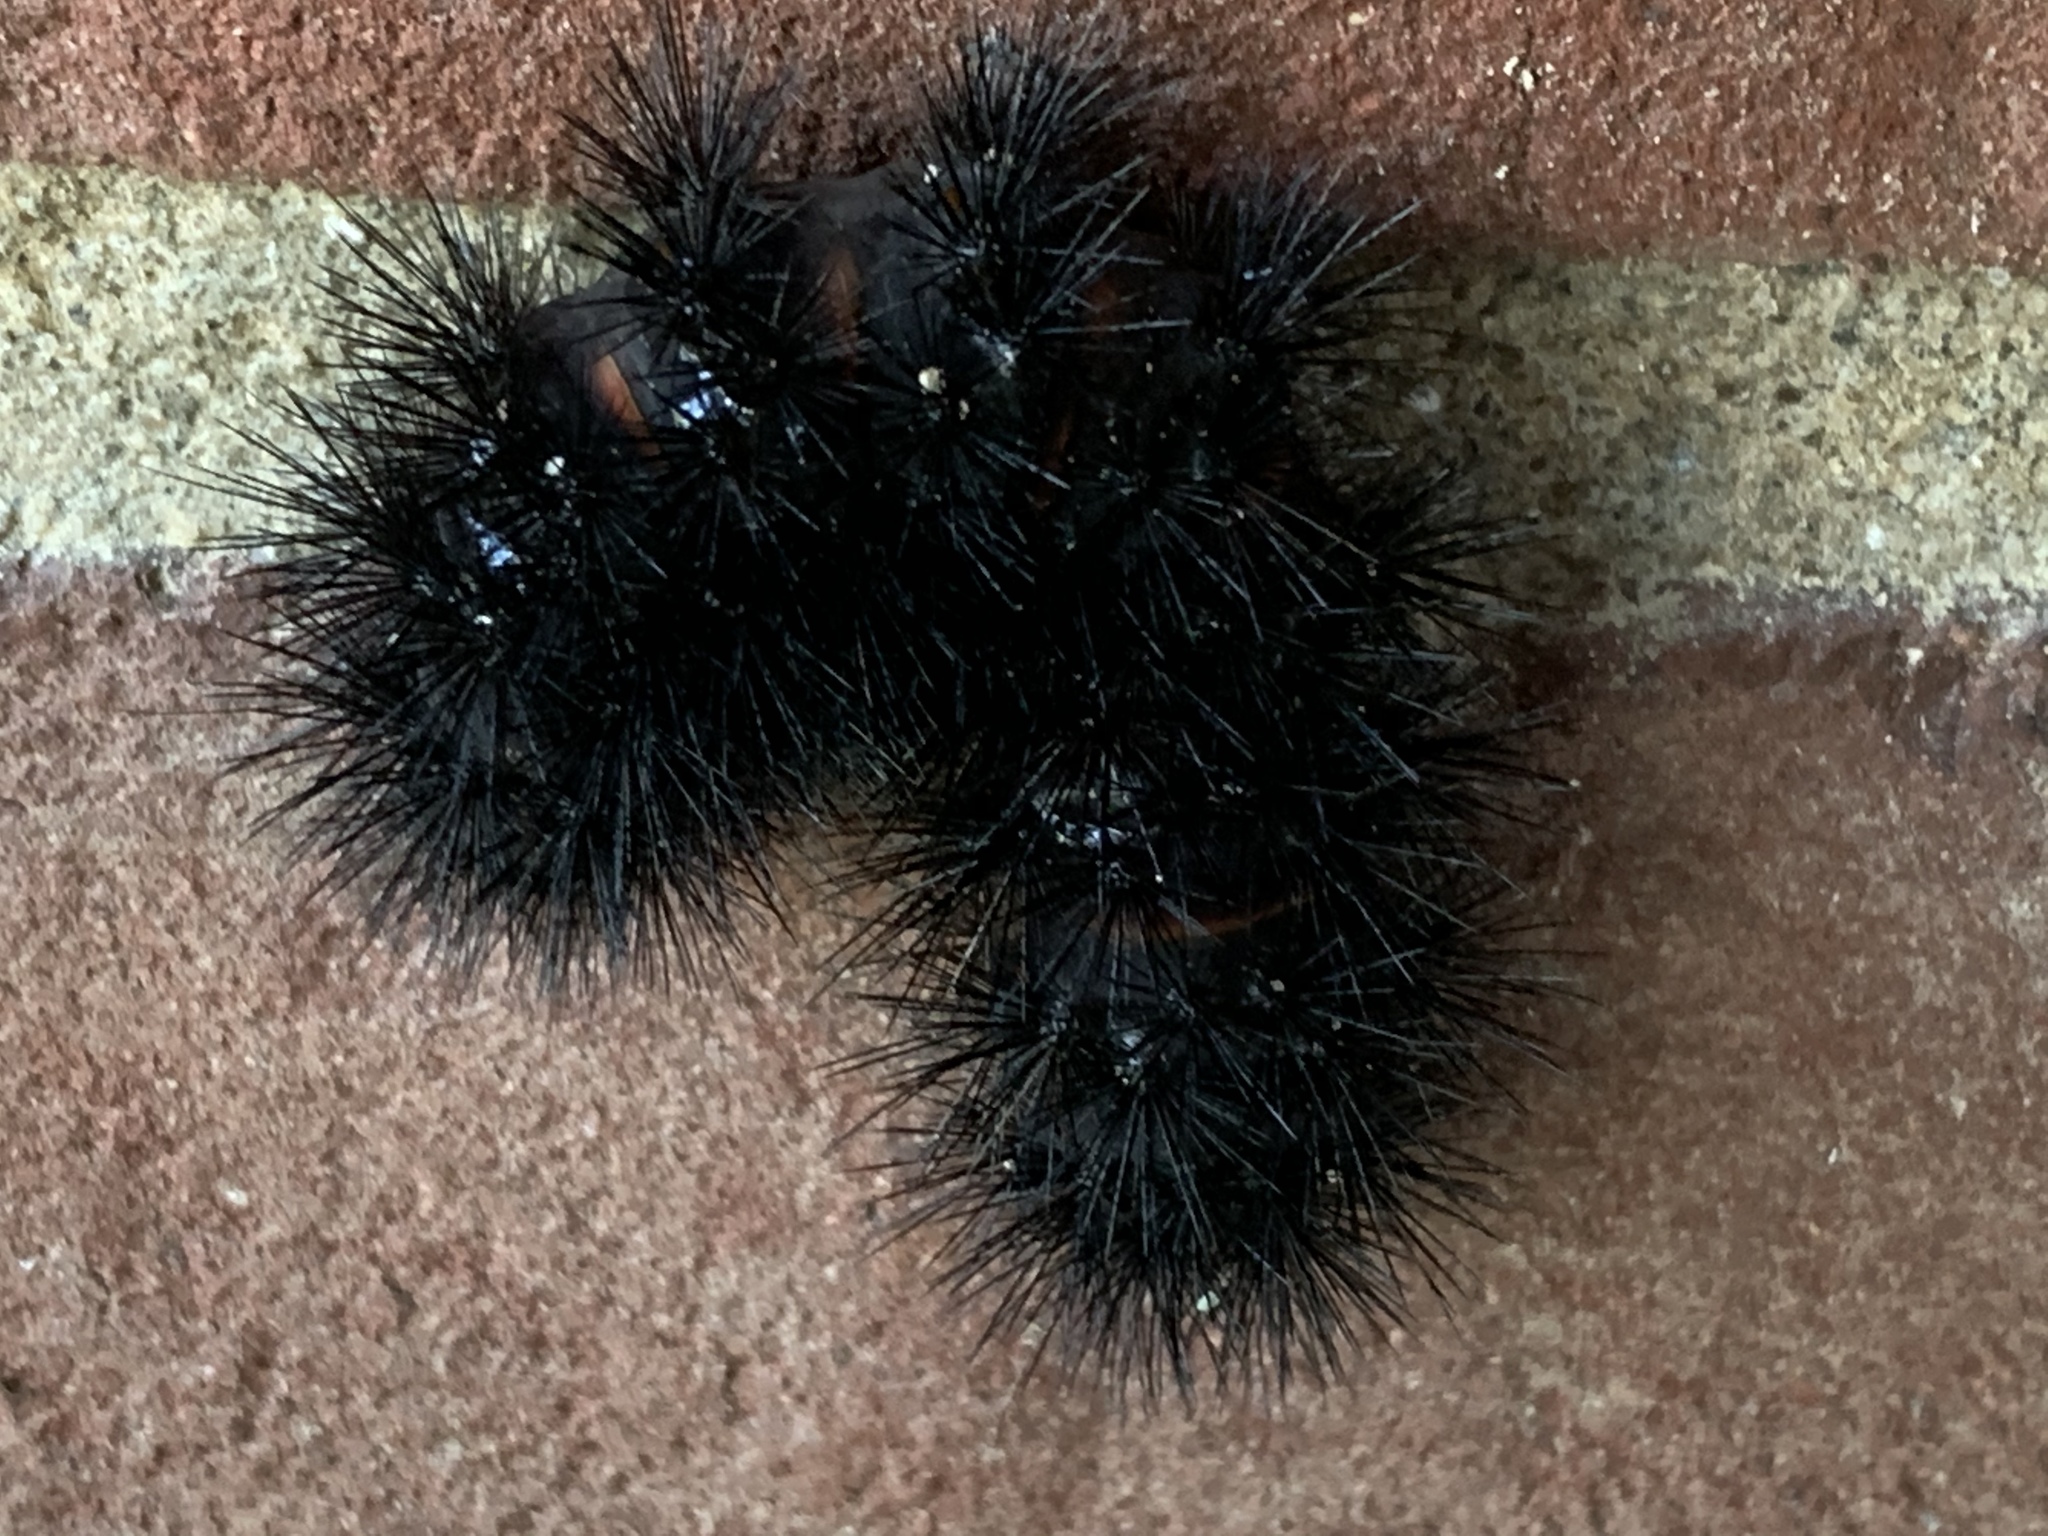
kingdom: Animalia
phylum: Arthropoda
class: Insecta
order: Lepidoptera
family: Erebidae
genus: Hypercompe
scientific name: Hypercompe scribonia
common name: Giant leopard moth
